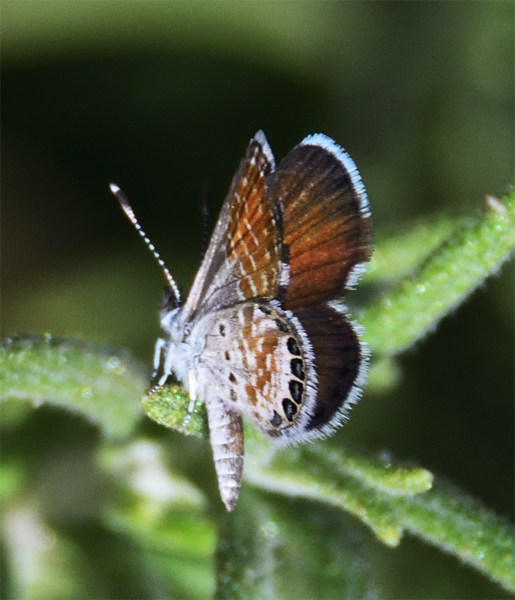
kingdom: Animalia
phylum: Arthropoda
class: Insecta
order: Lepidoptera
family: Lycaenidae
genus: Brephidium
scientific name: Brephidium exilis
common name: Pygmy blue
